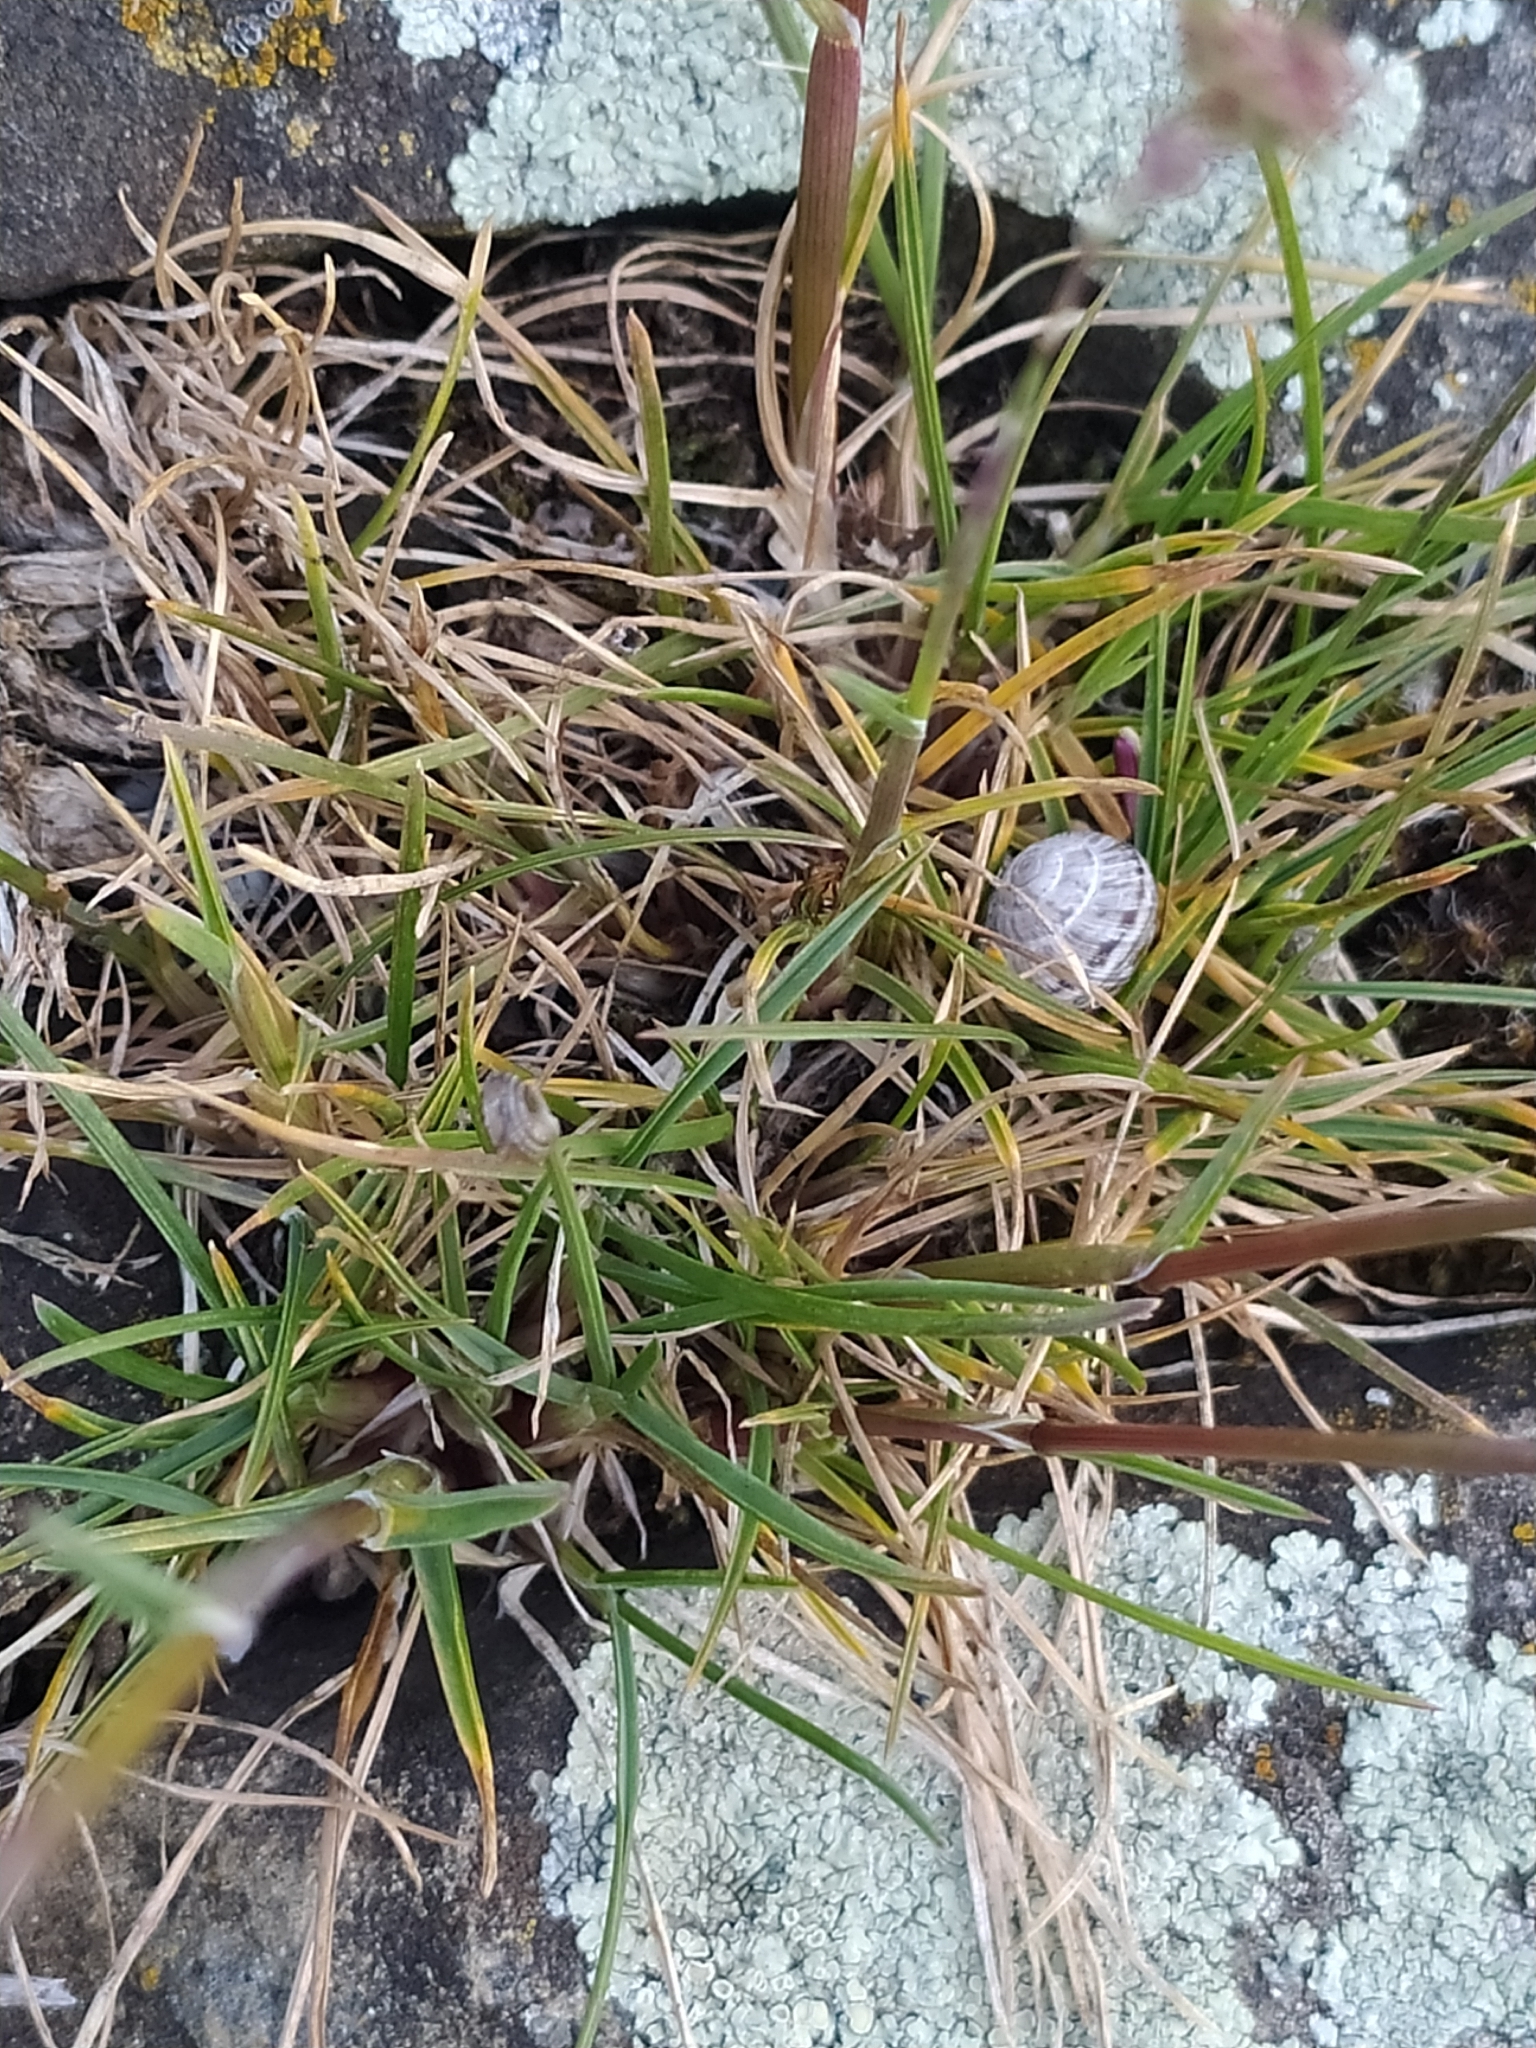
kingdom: Plantae
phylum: Tracheophyta
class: Liliopsida
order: Poales
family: Poaceae
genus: Poa
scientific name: Poa bulbosa
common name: Bulbous bluegrass
